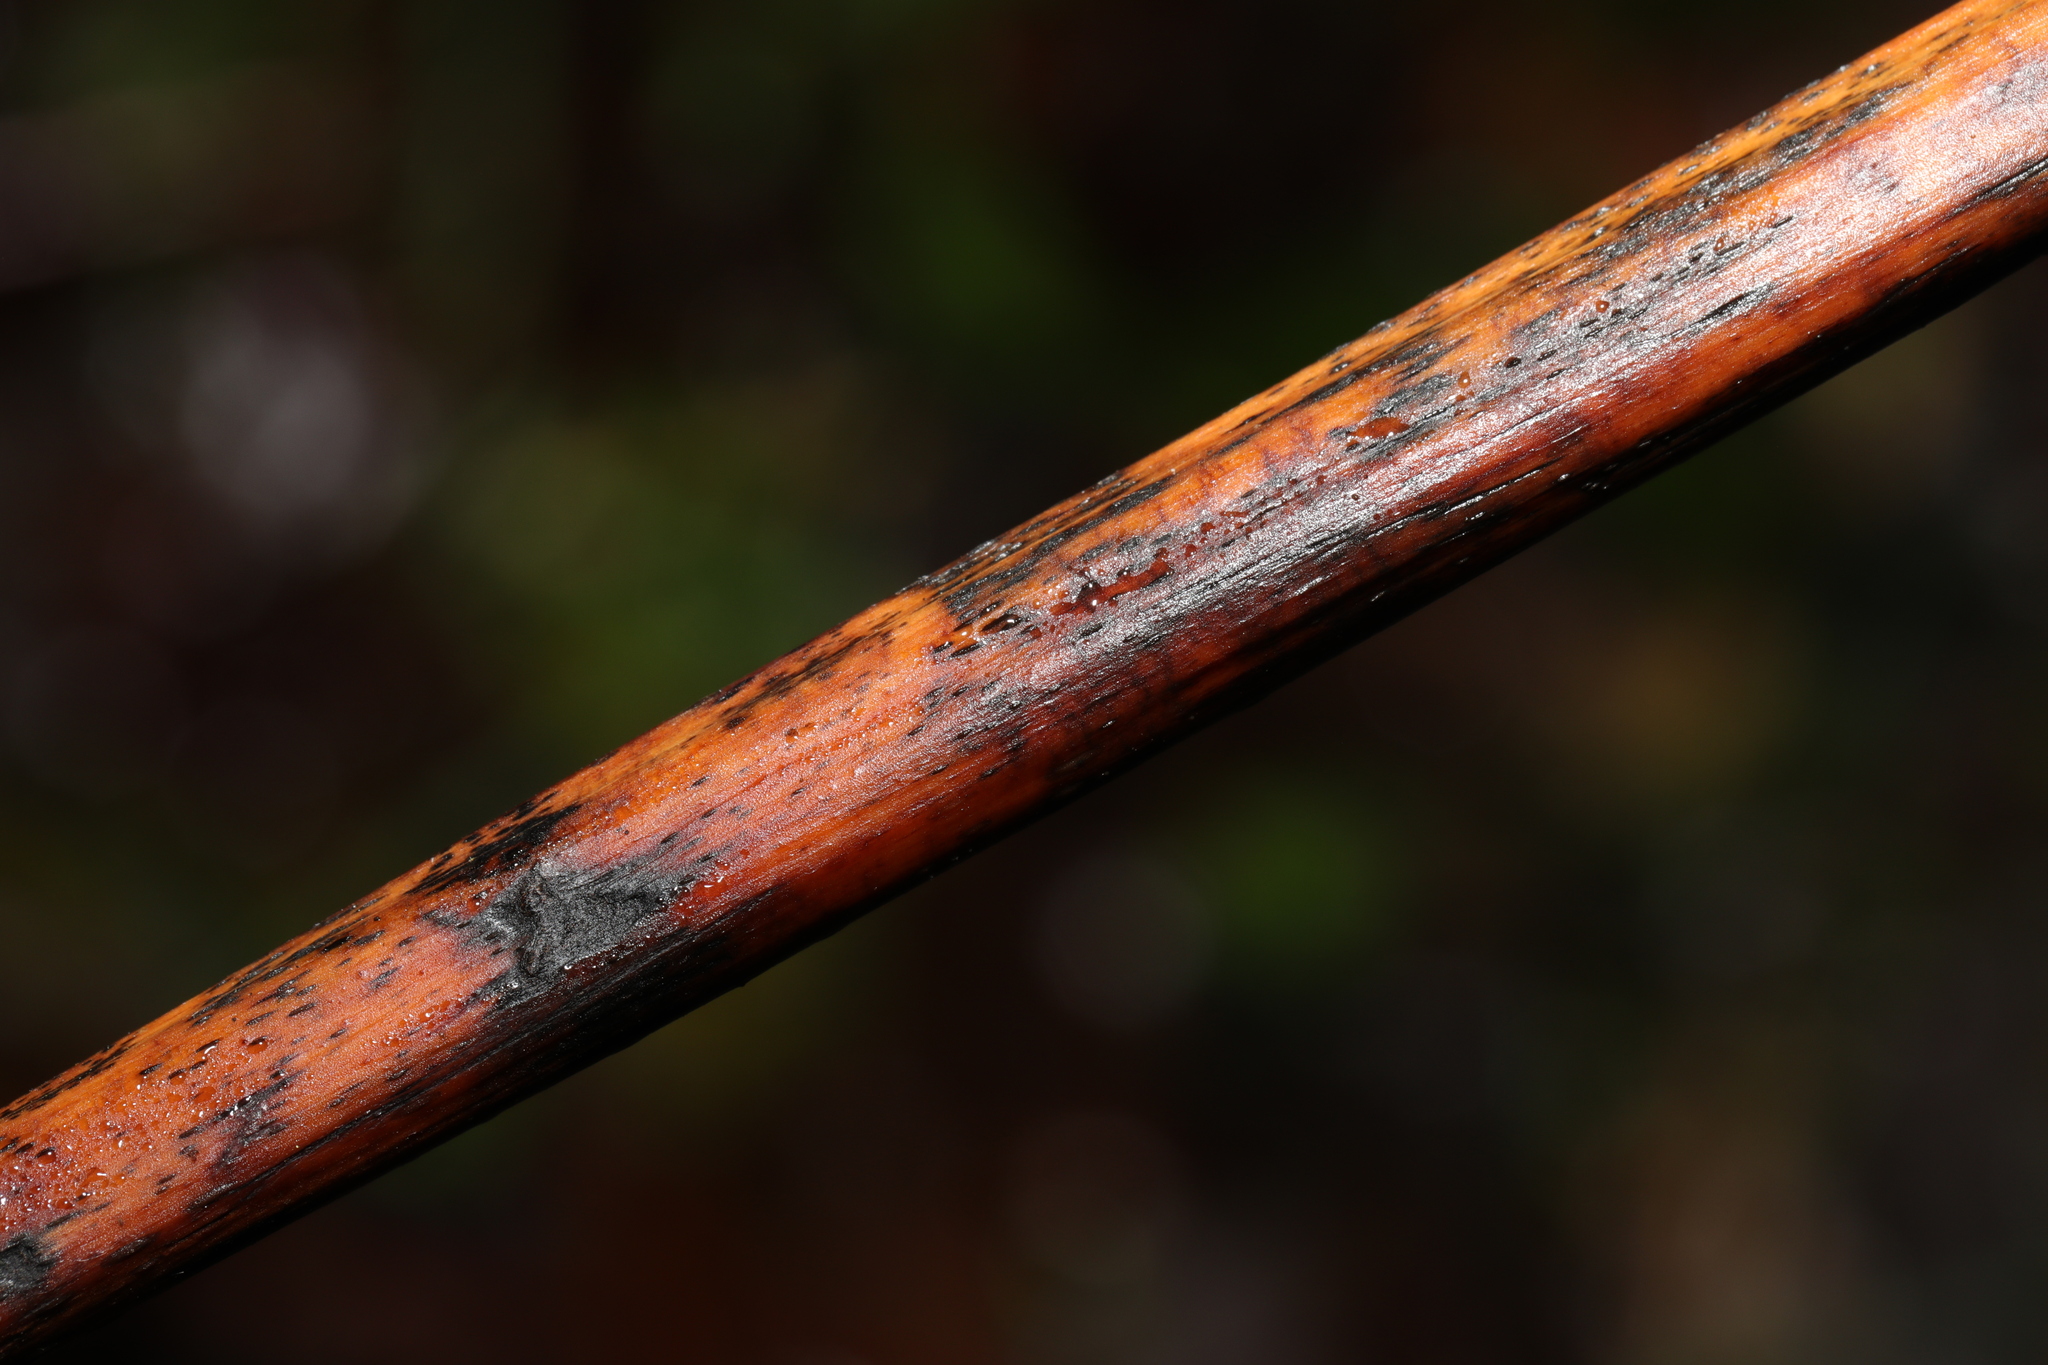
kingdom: Fungi
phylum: Ascomycota
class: Dothideomycetes
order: Pleosporales
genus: Rhopographus
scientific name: Rhopographus filicinus
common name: Bracken map
